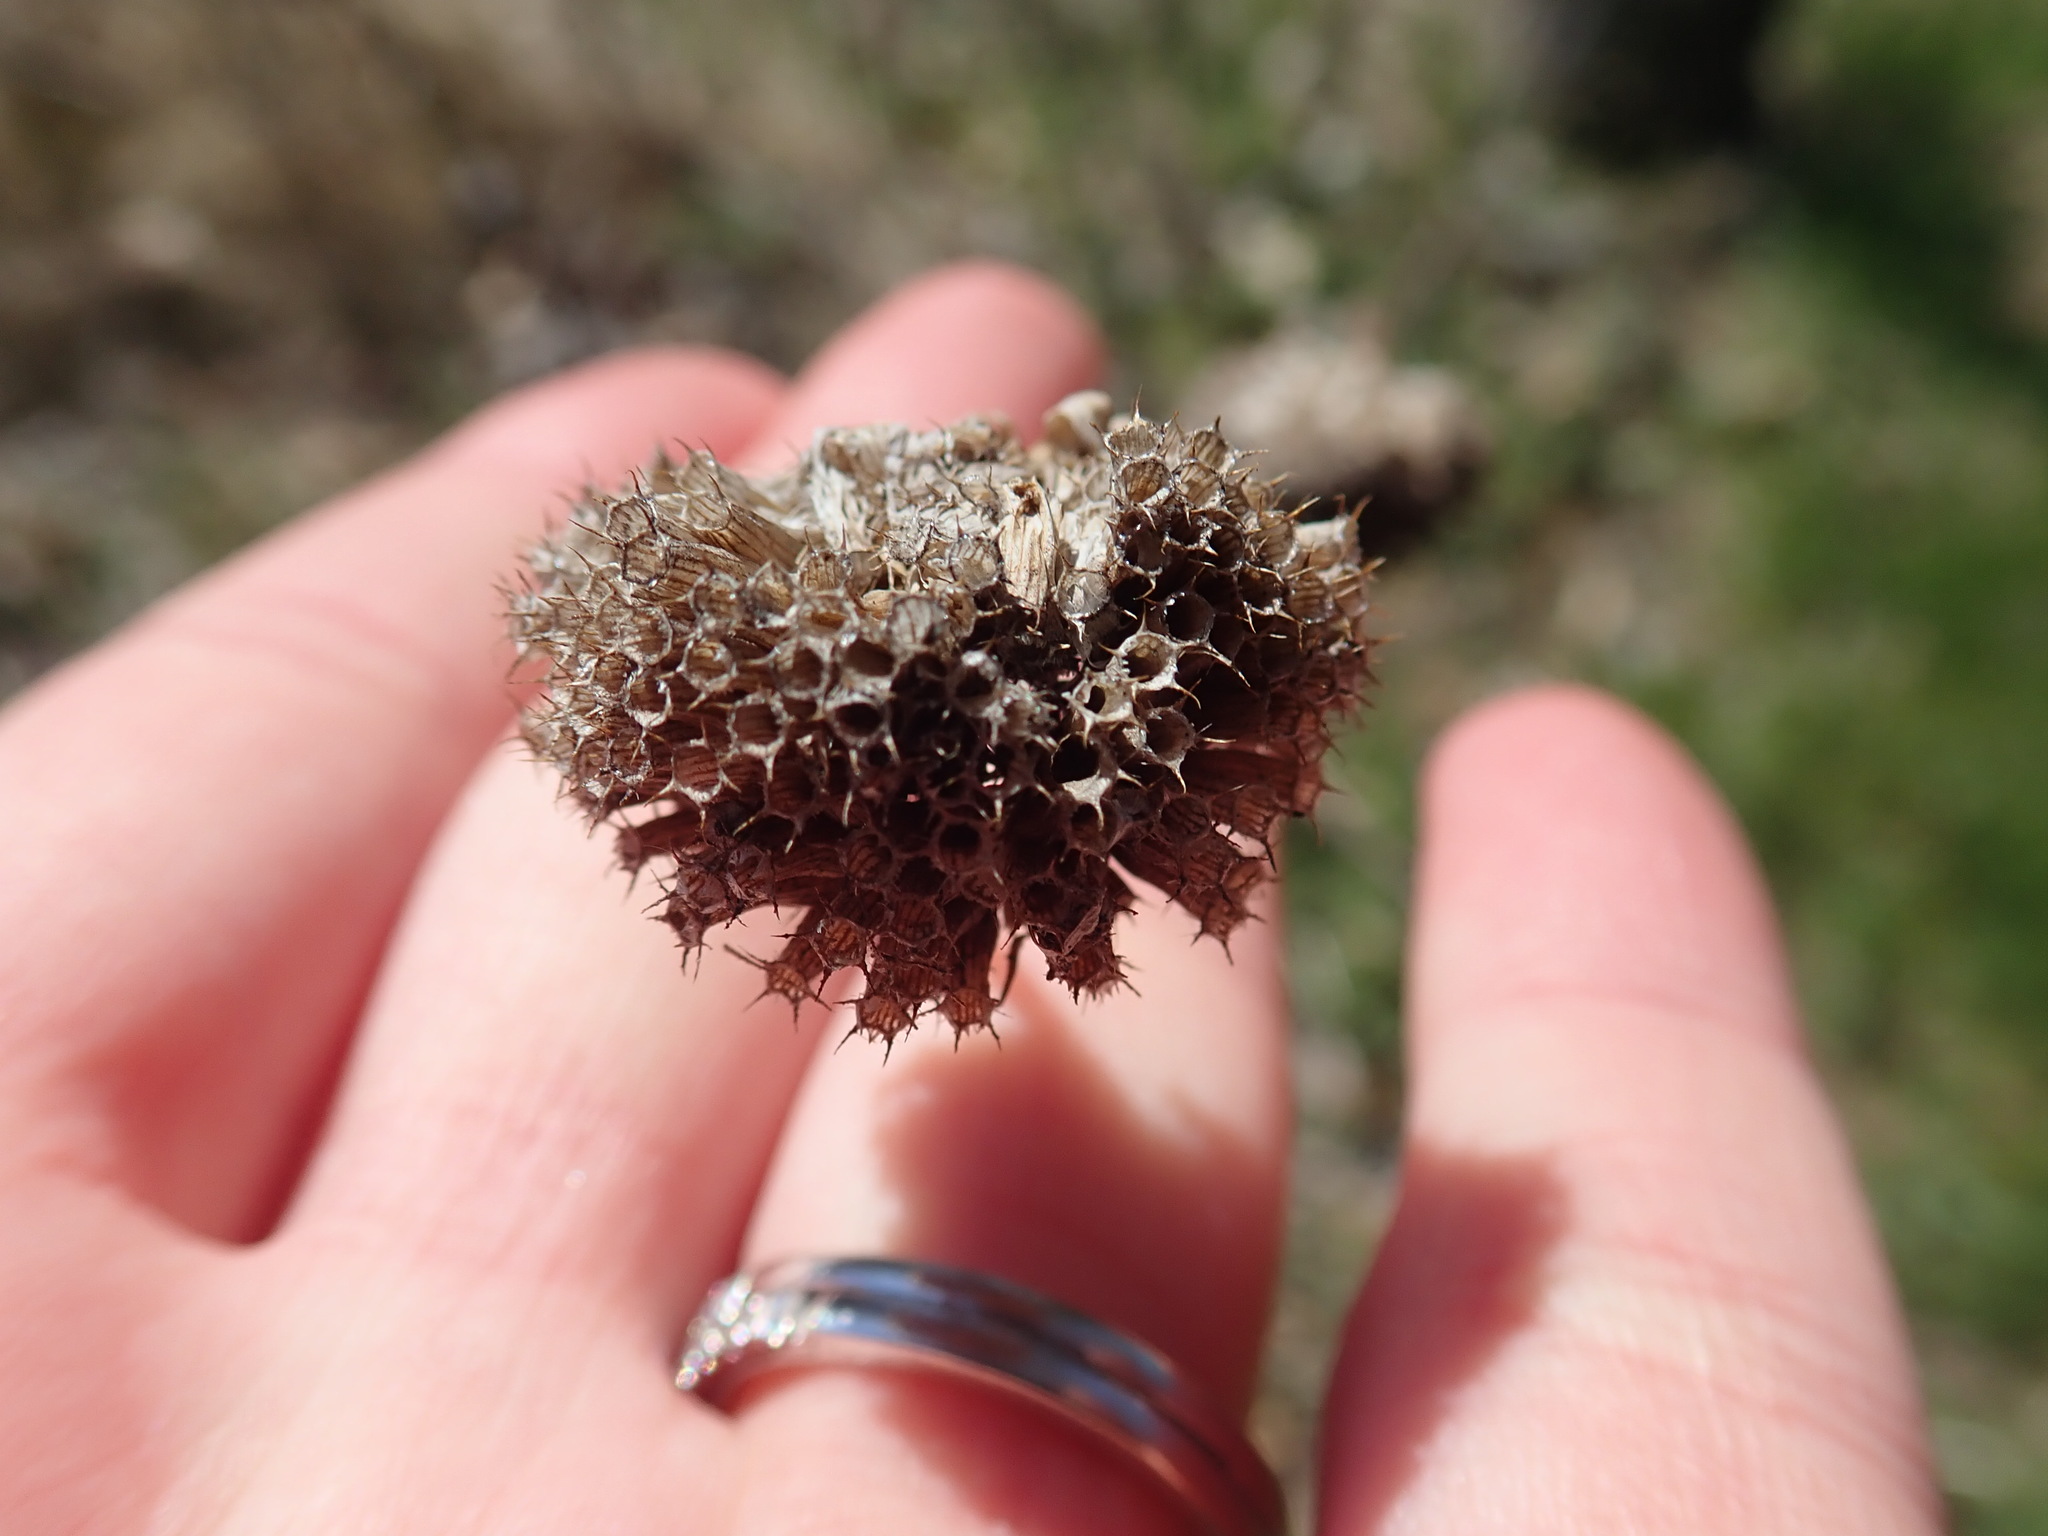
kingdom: Plantae
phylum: Tracheophyta
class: Magnoliopsida
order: Lamiales
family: Lamiaceae
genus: Monarda
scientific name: Monarda fistulosa
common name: Purple beebalm
